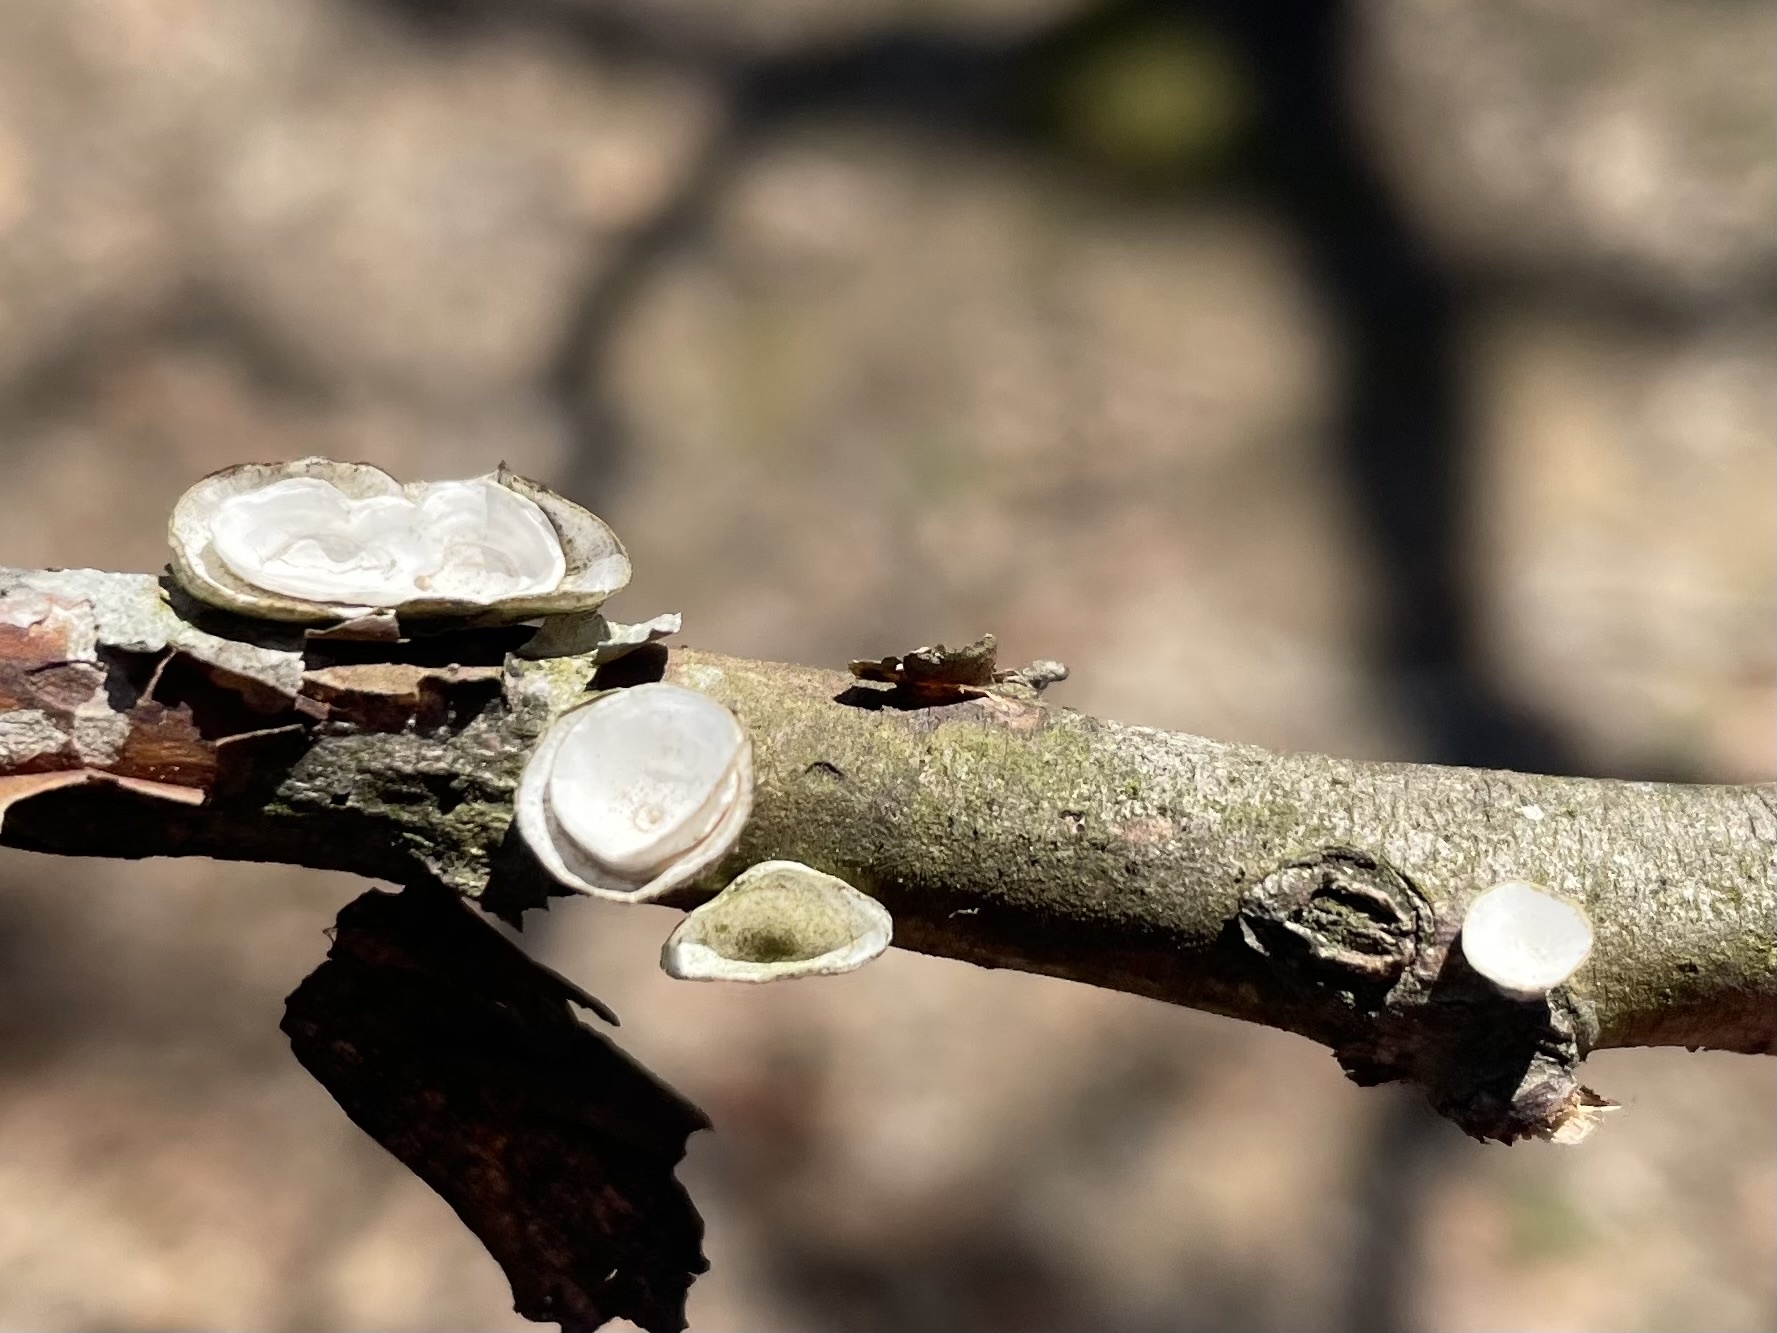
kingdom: Fungi
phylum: Basidiomycota
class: Agaricomycetes
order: Polyporales
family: Polyporaceae
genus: Poronidulus
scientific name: Poronidulus conchifer
